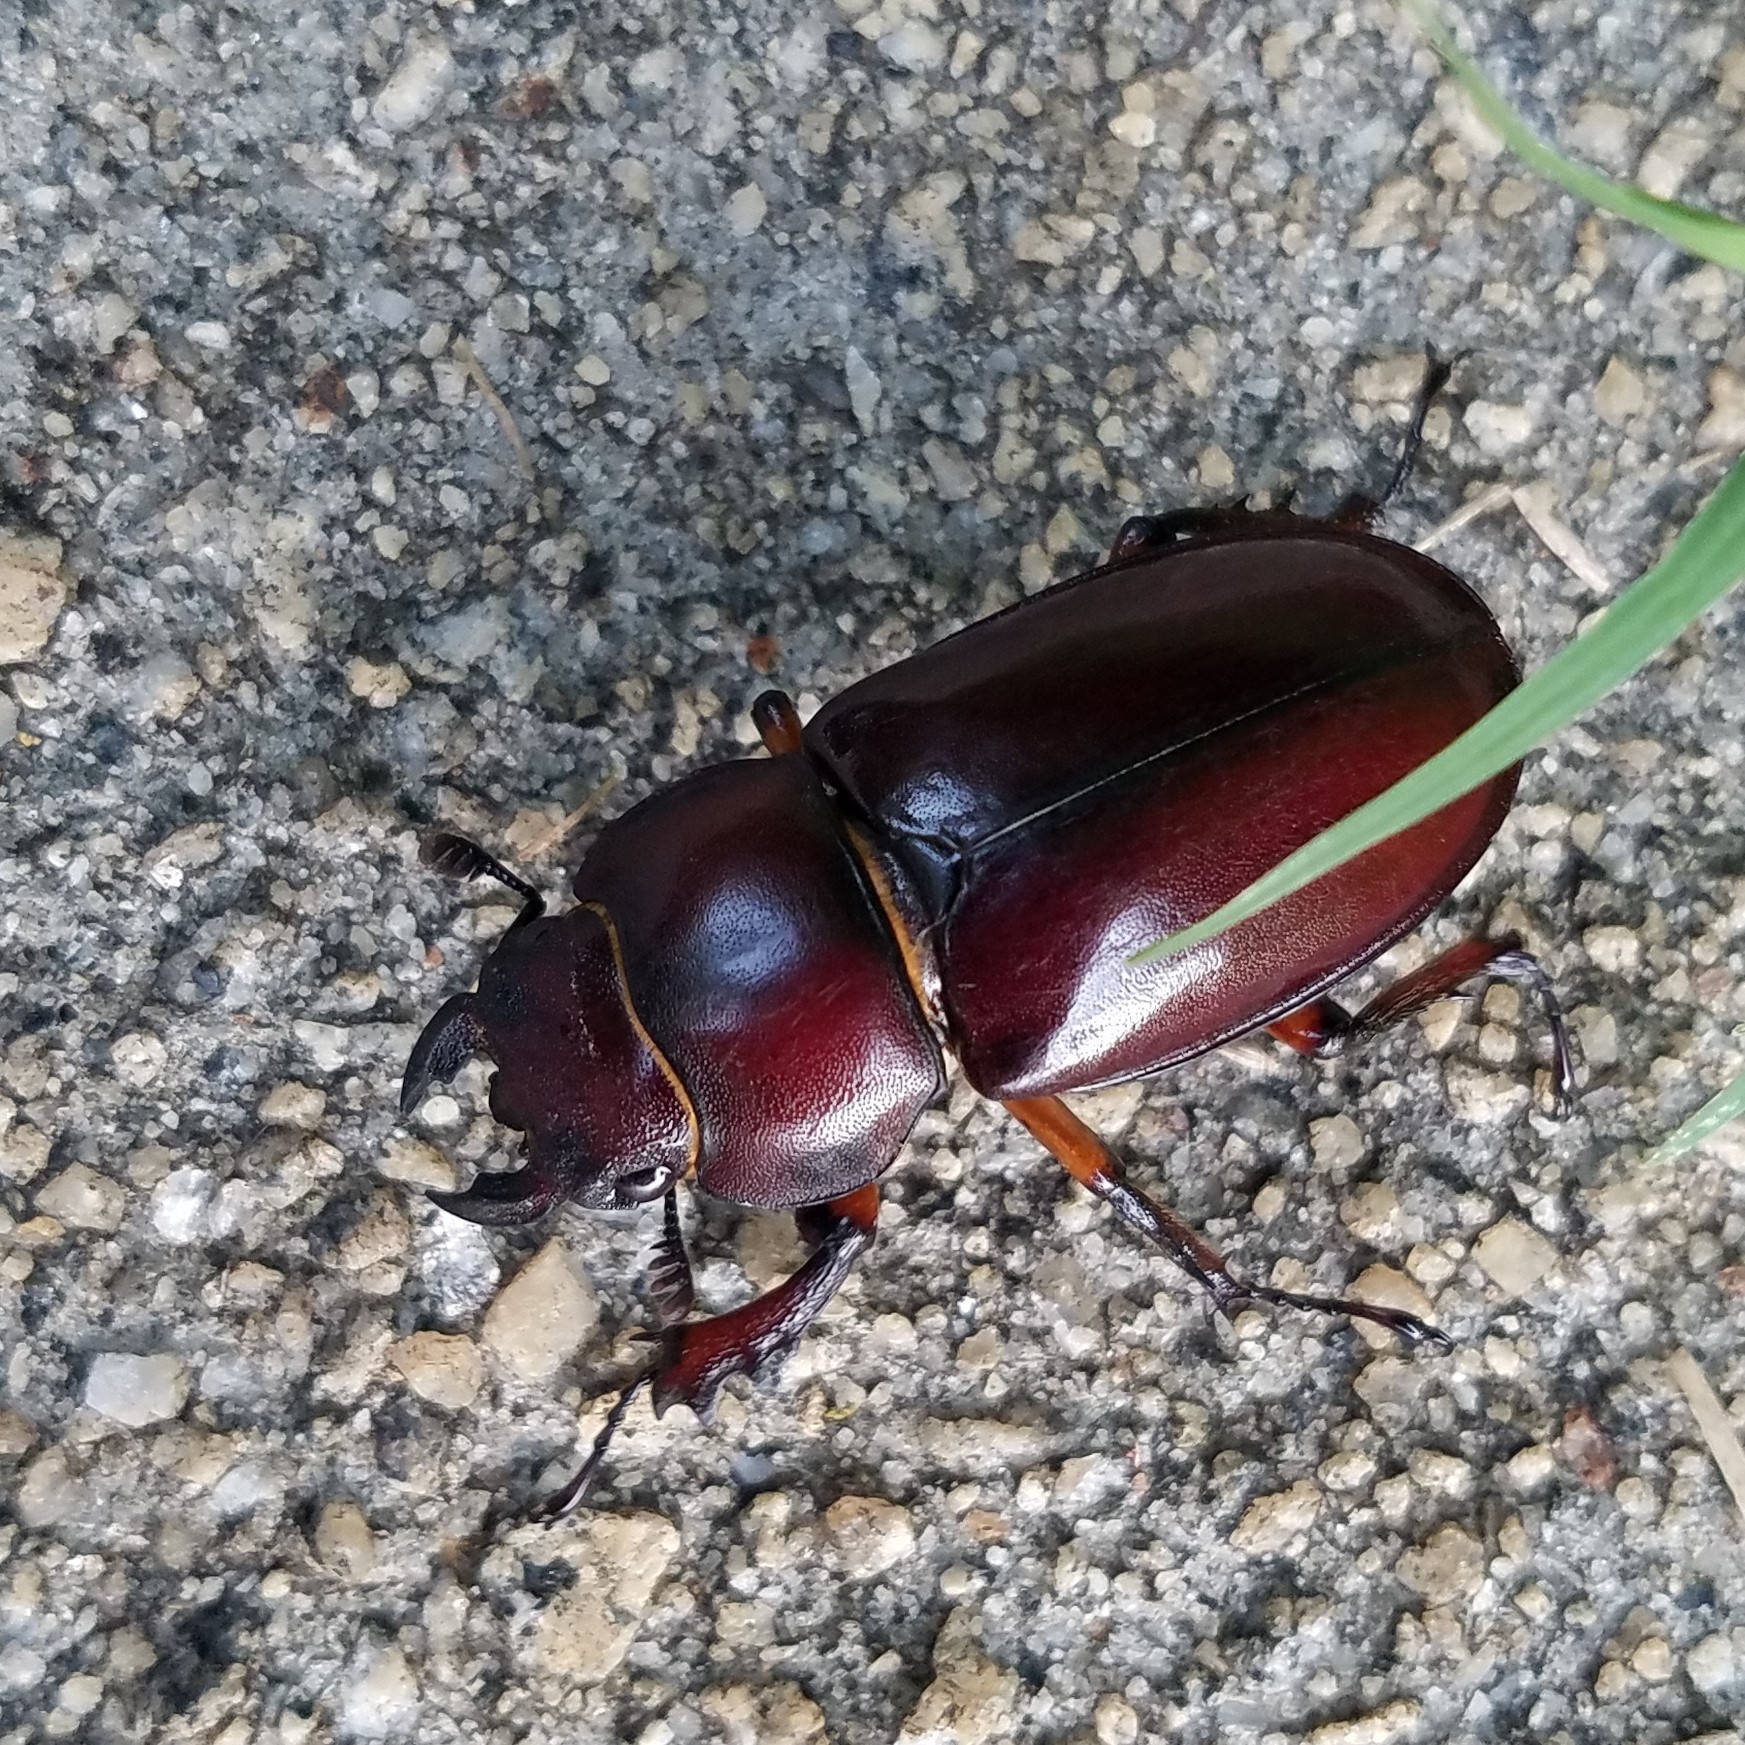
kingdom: Animalia
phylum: Arthropoda
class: Insecta
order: Coleoptera
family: Lucanidae
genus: Lucanus
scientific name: Lucanus capreolus
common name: Stag beetle
